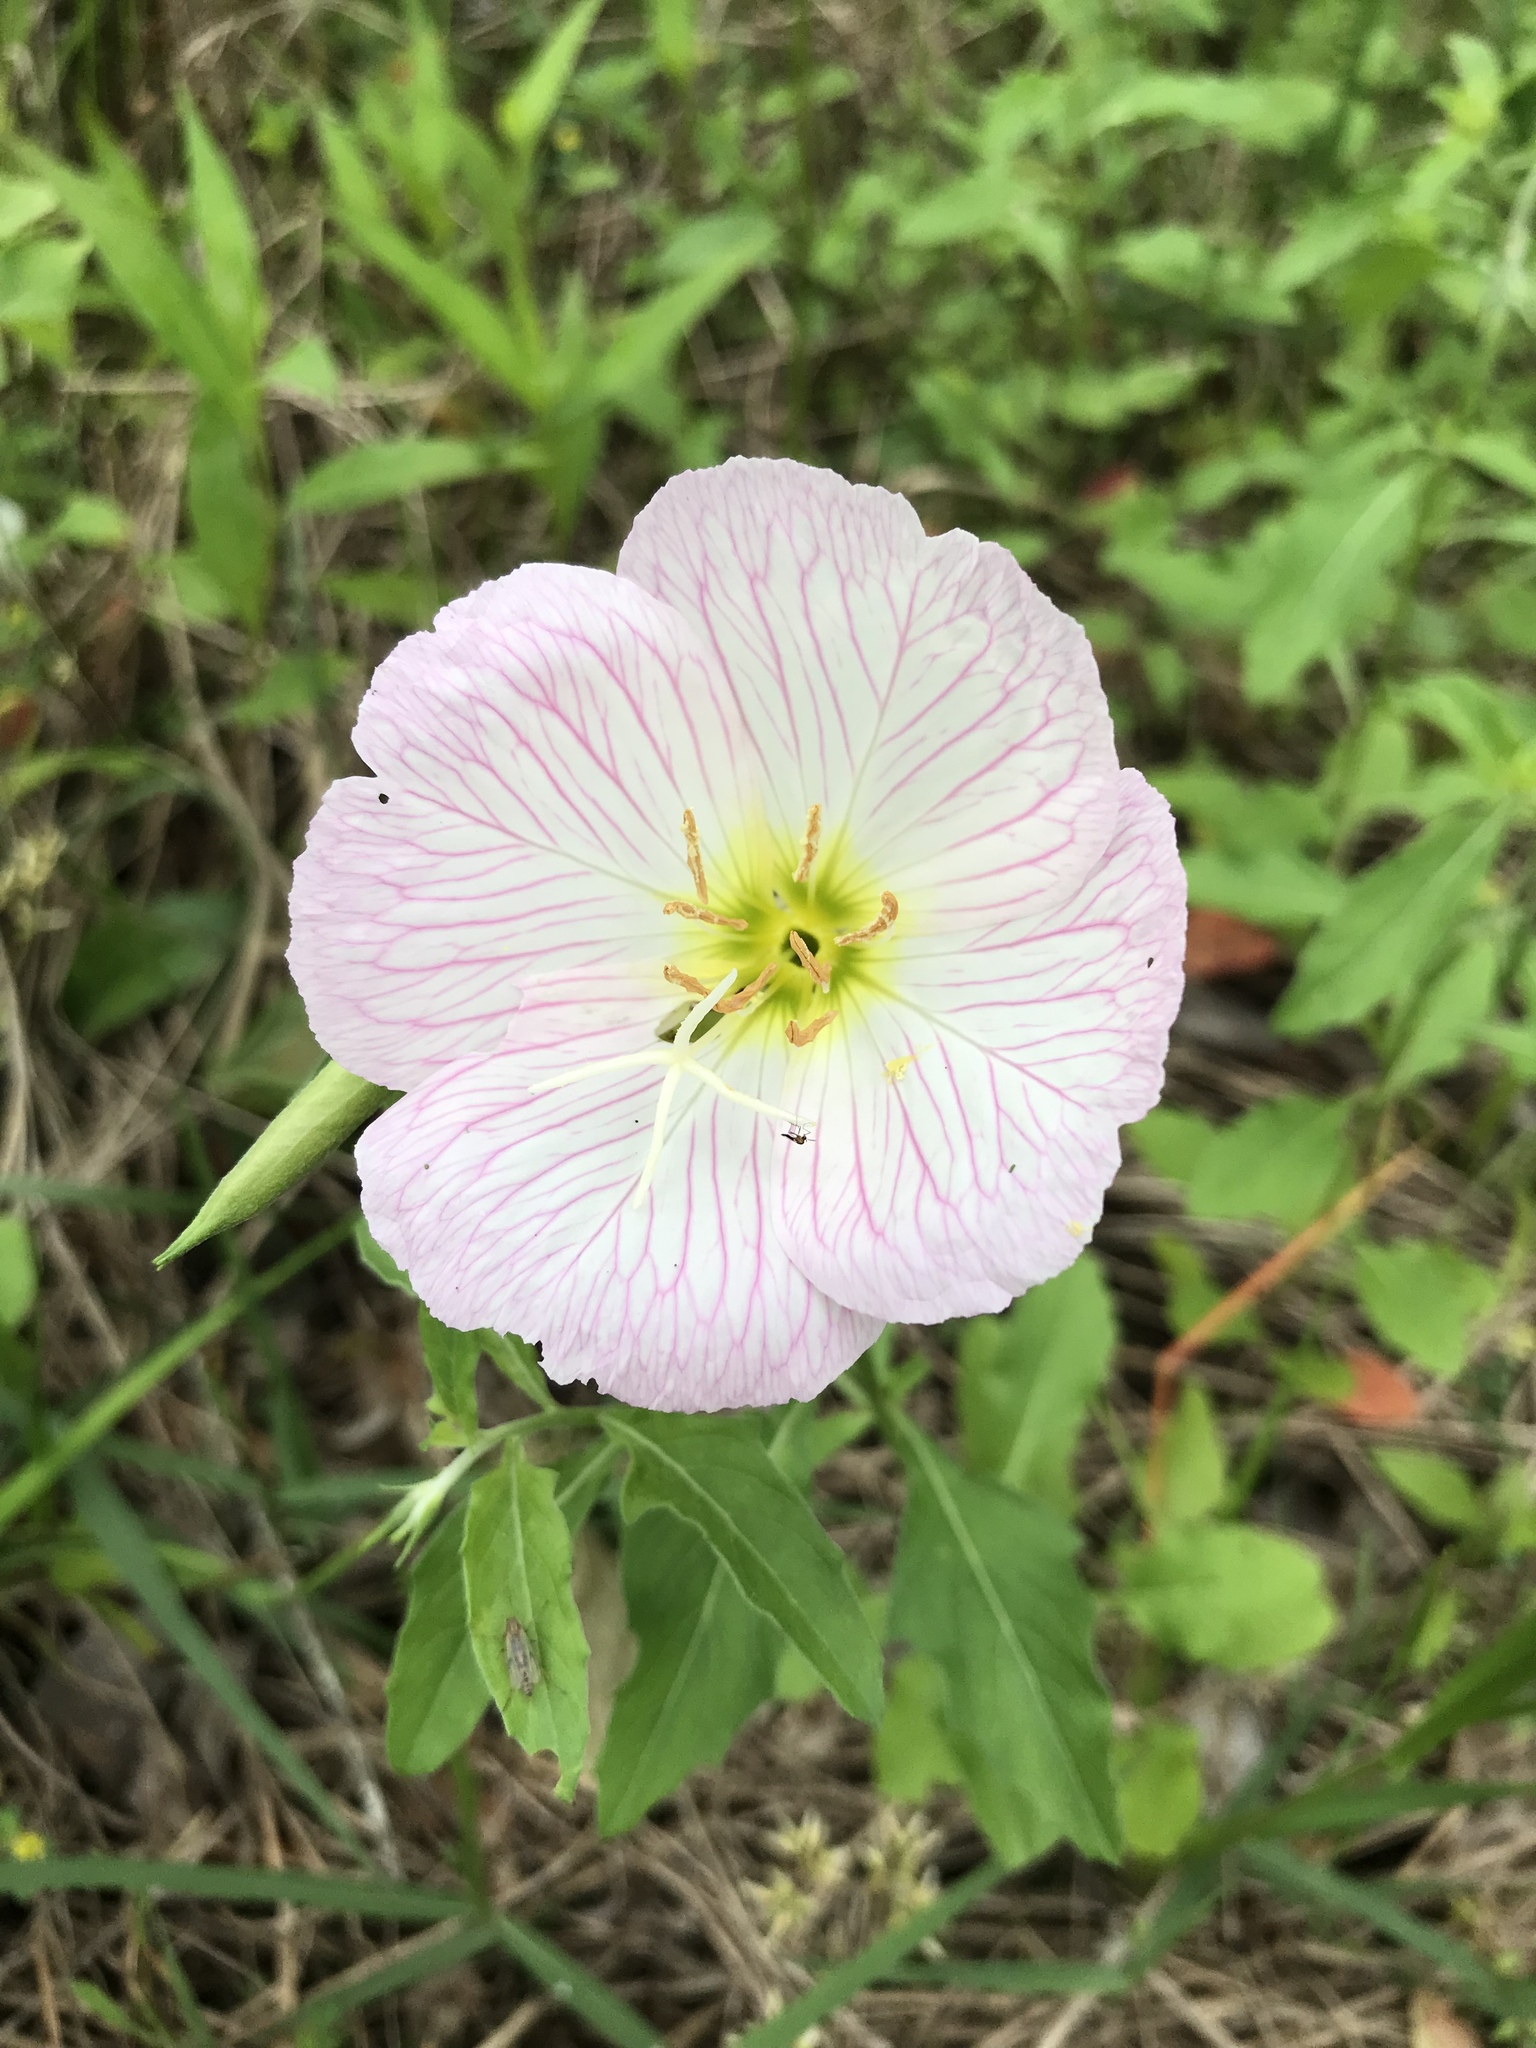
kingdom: Plantae
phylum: Tracheophyta
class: Magnoliopsida
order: Myrtales
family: Onagraceae
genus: Oenothera
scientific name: Oenothera speciosa
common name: White evening-primrose
